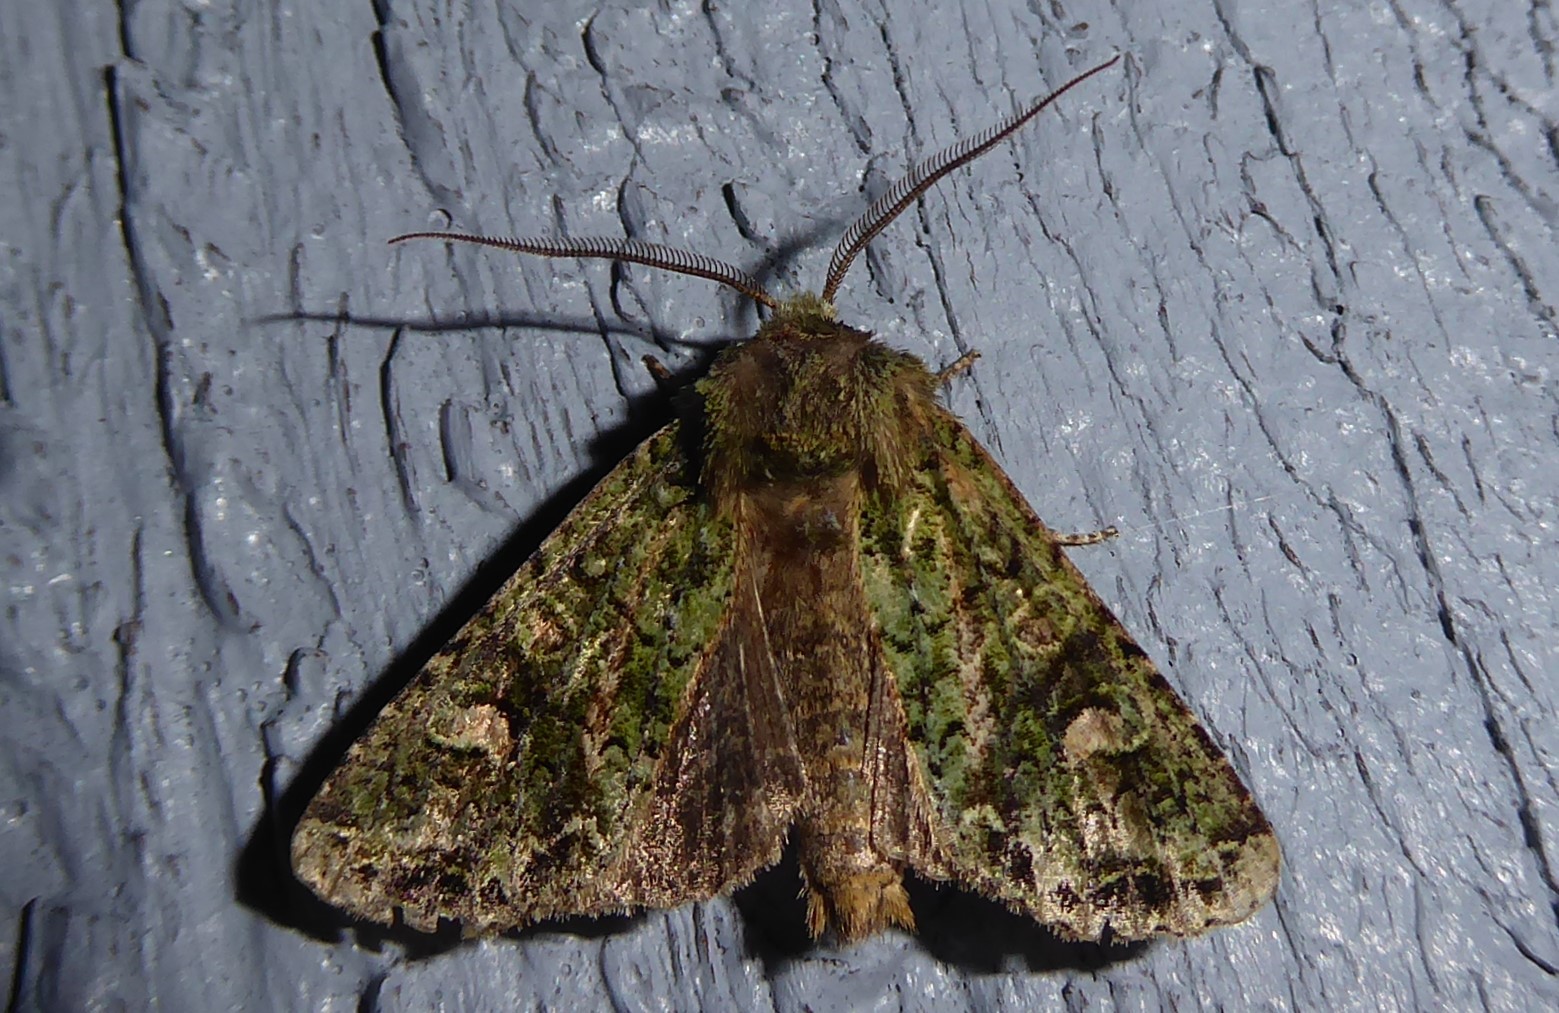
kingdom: Animalia
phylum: Arthropoda
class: Insecta
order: Lepidoptera
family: Noctuidae
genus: Ichneutica
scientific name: Ichneutica
